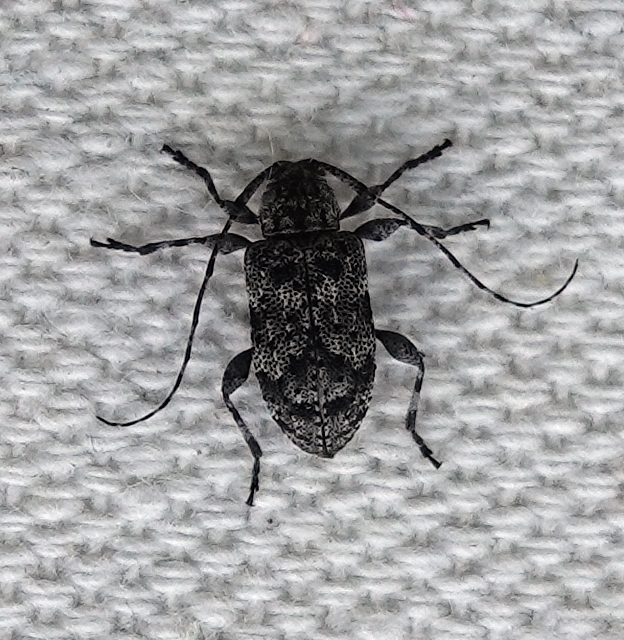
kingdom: Animalia
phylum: Arthropoda
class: Insecta
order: Coleoptera
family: Cerambycidae
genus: Astylopsis
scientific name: Astylopsis sexguttata
